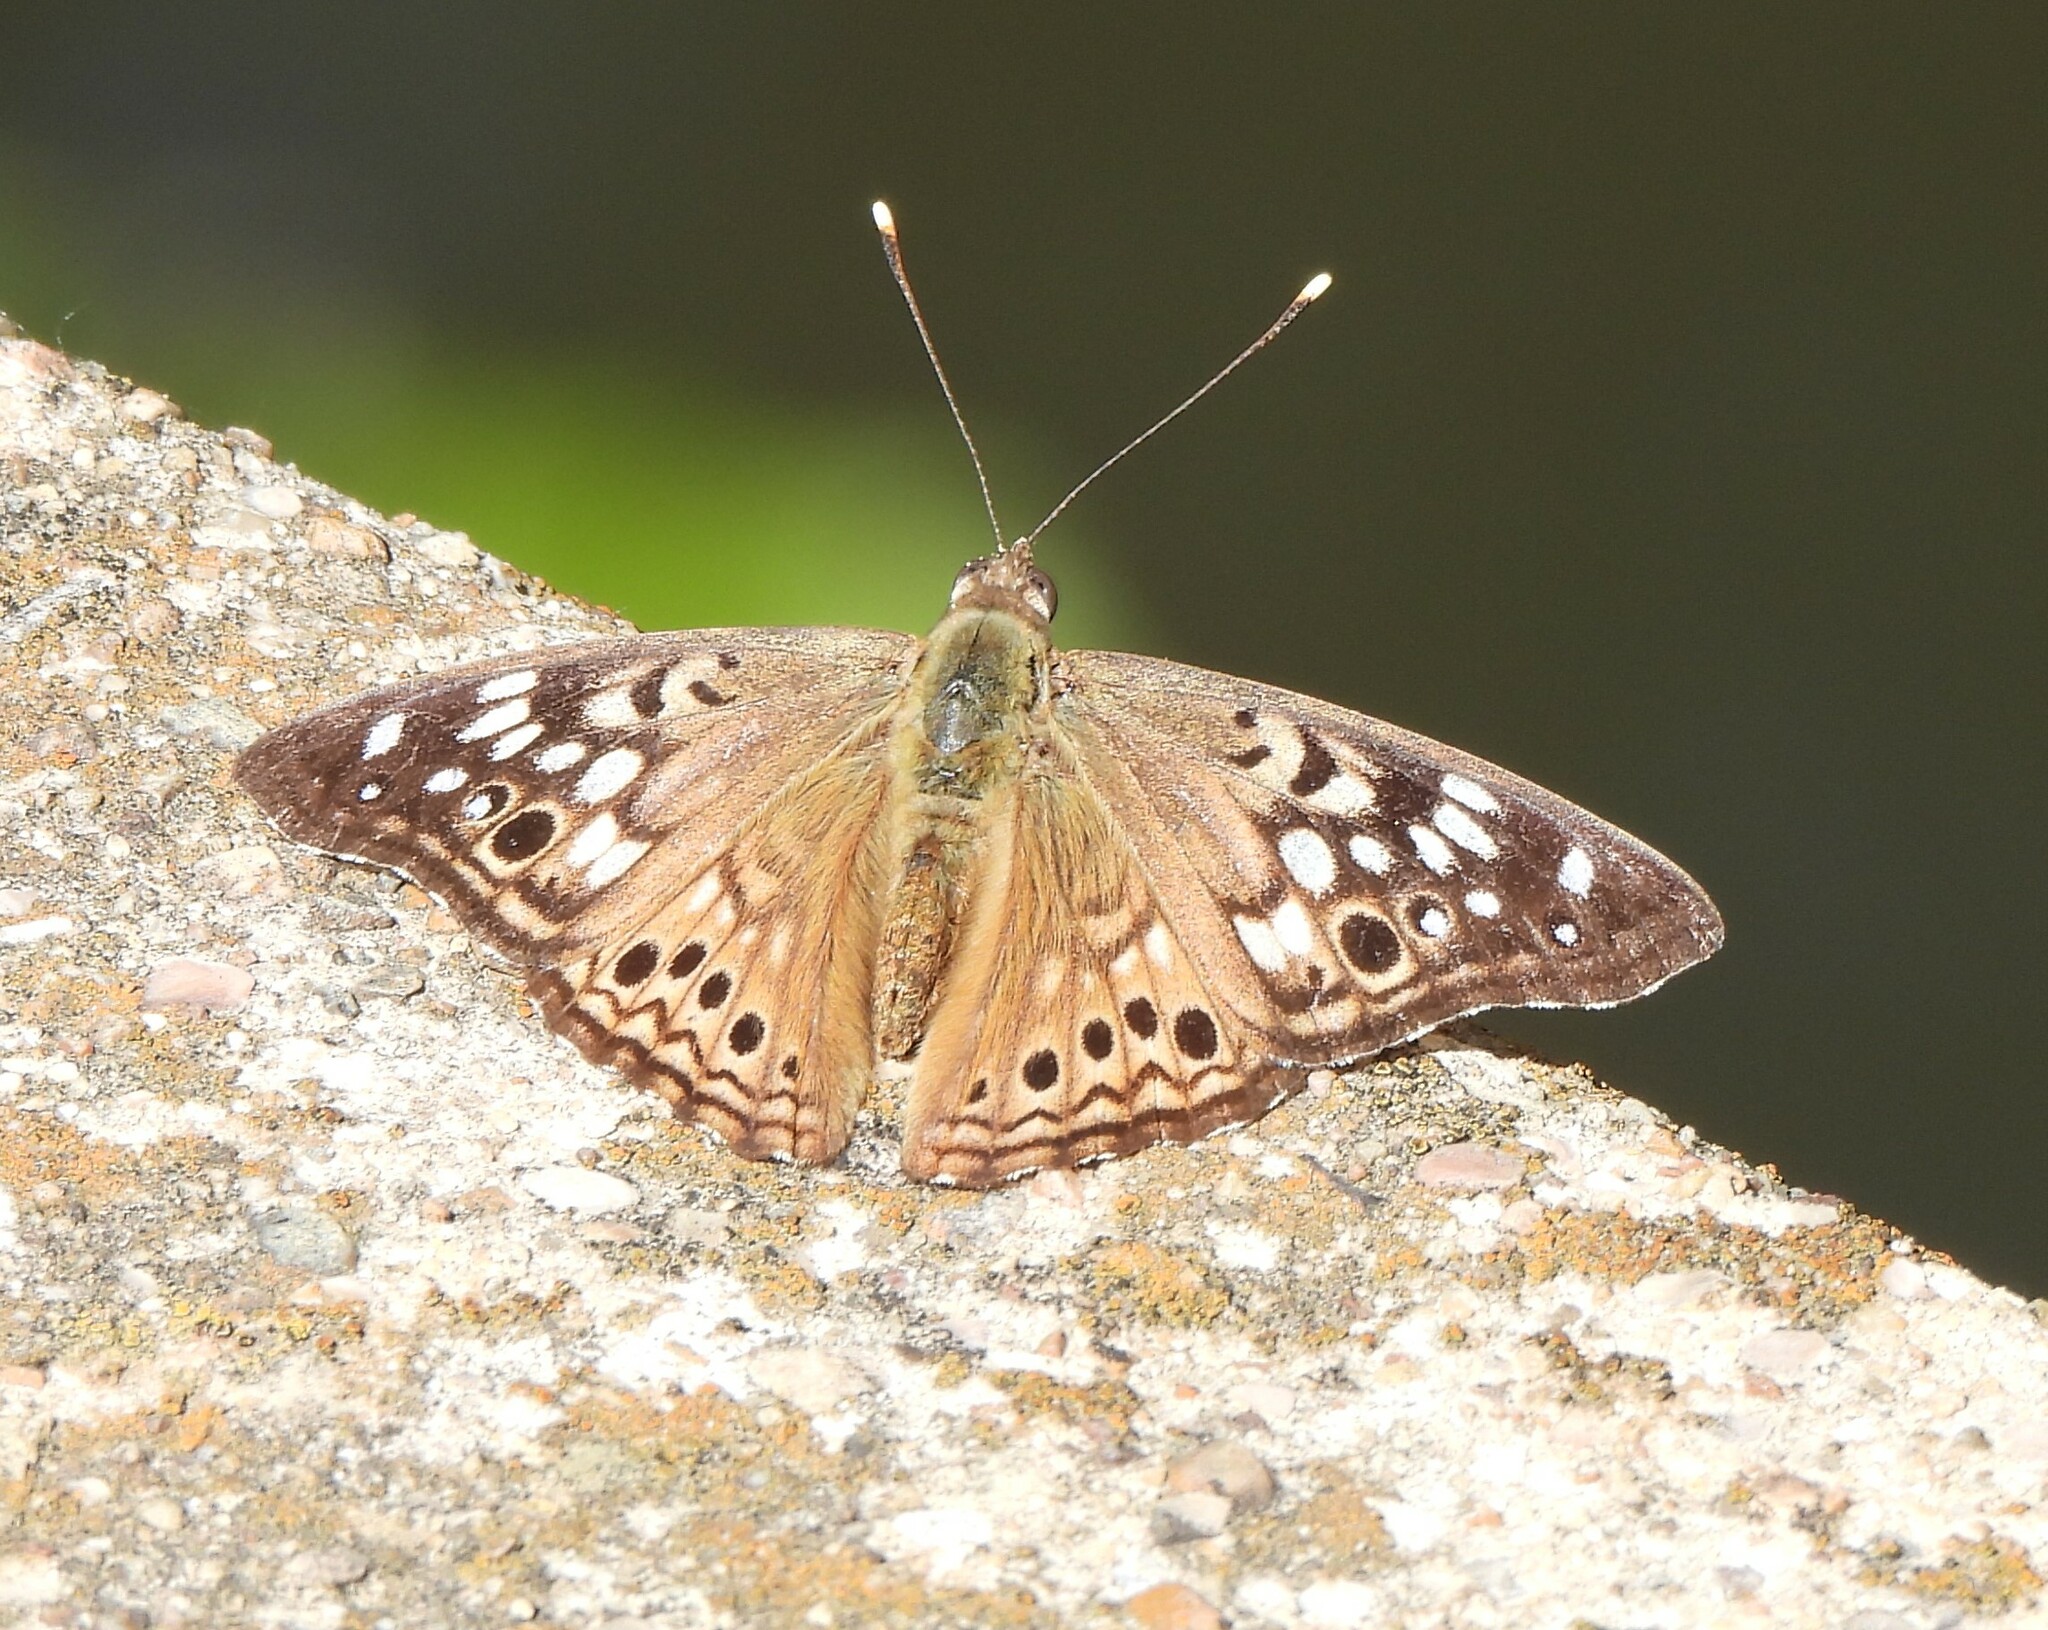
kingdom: Animalia
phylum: Arthropoda
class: Insecta
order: Lepidoptera
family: Nymphalidae
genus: Asterocampa
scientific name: Asterocampa celtis
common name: Hackberry emperor
